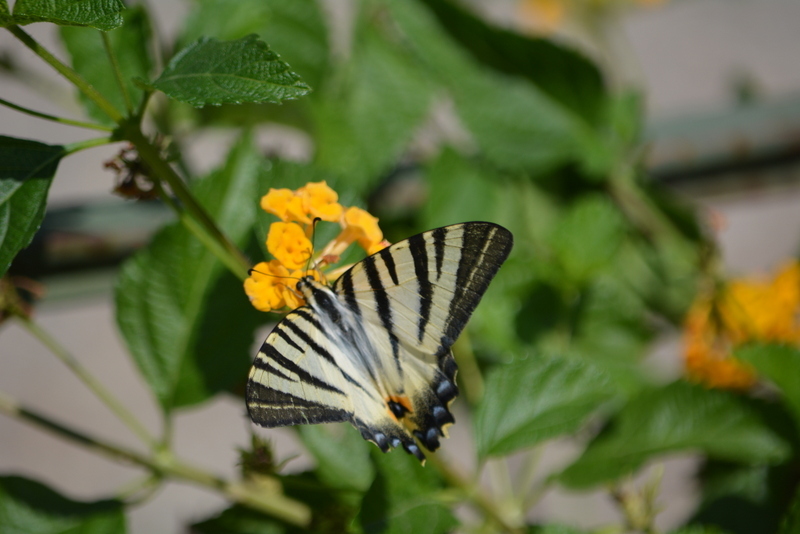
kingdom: Animalia
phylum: Arthropoda
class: Insecta
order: Lepidoptera
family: Papilionidae
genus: Iphiclides
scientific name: Iphiclides podalirius
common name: Scarce swallowtail
